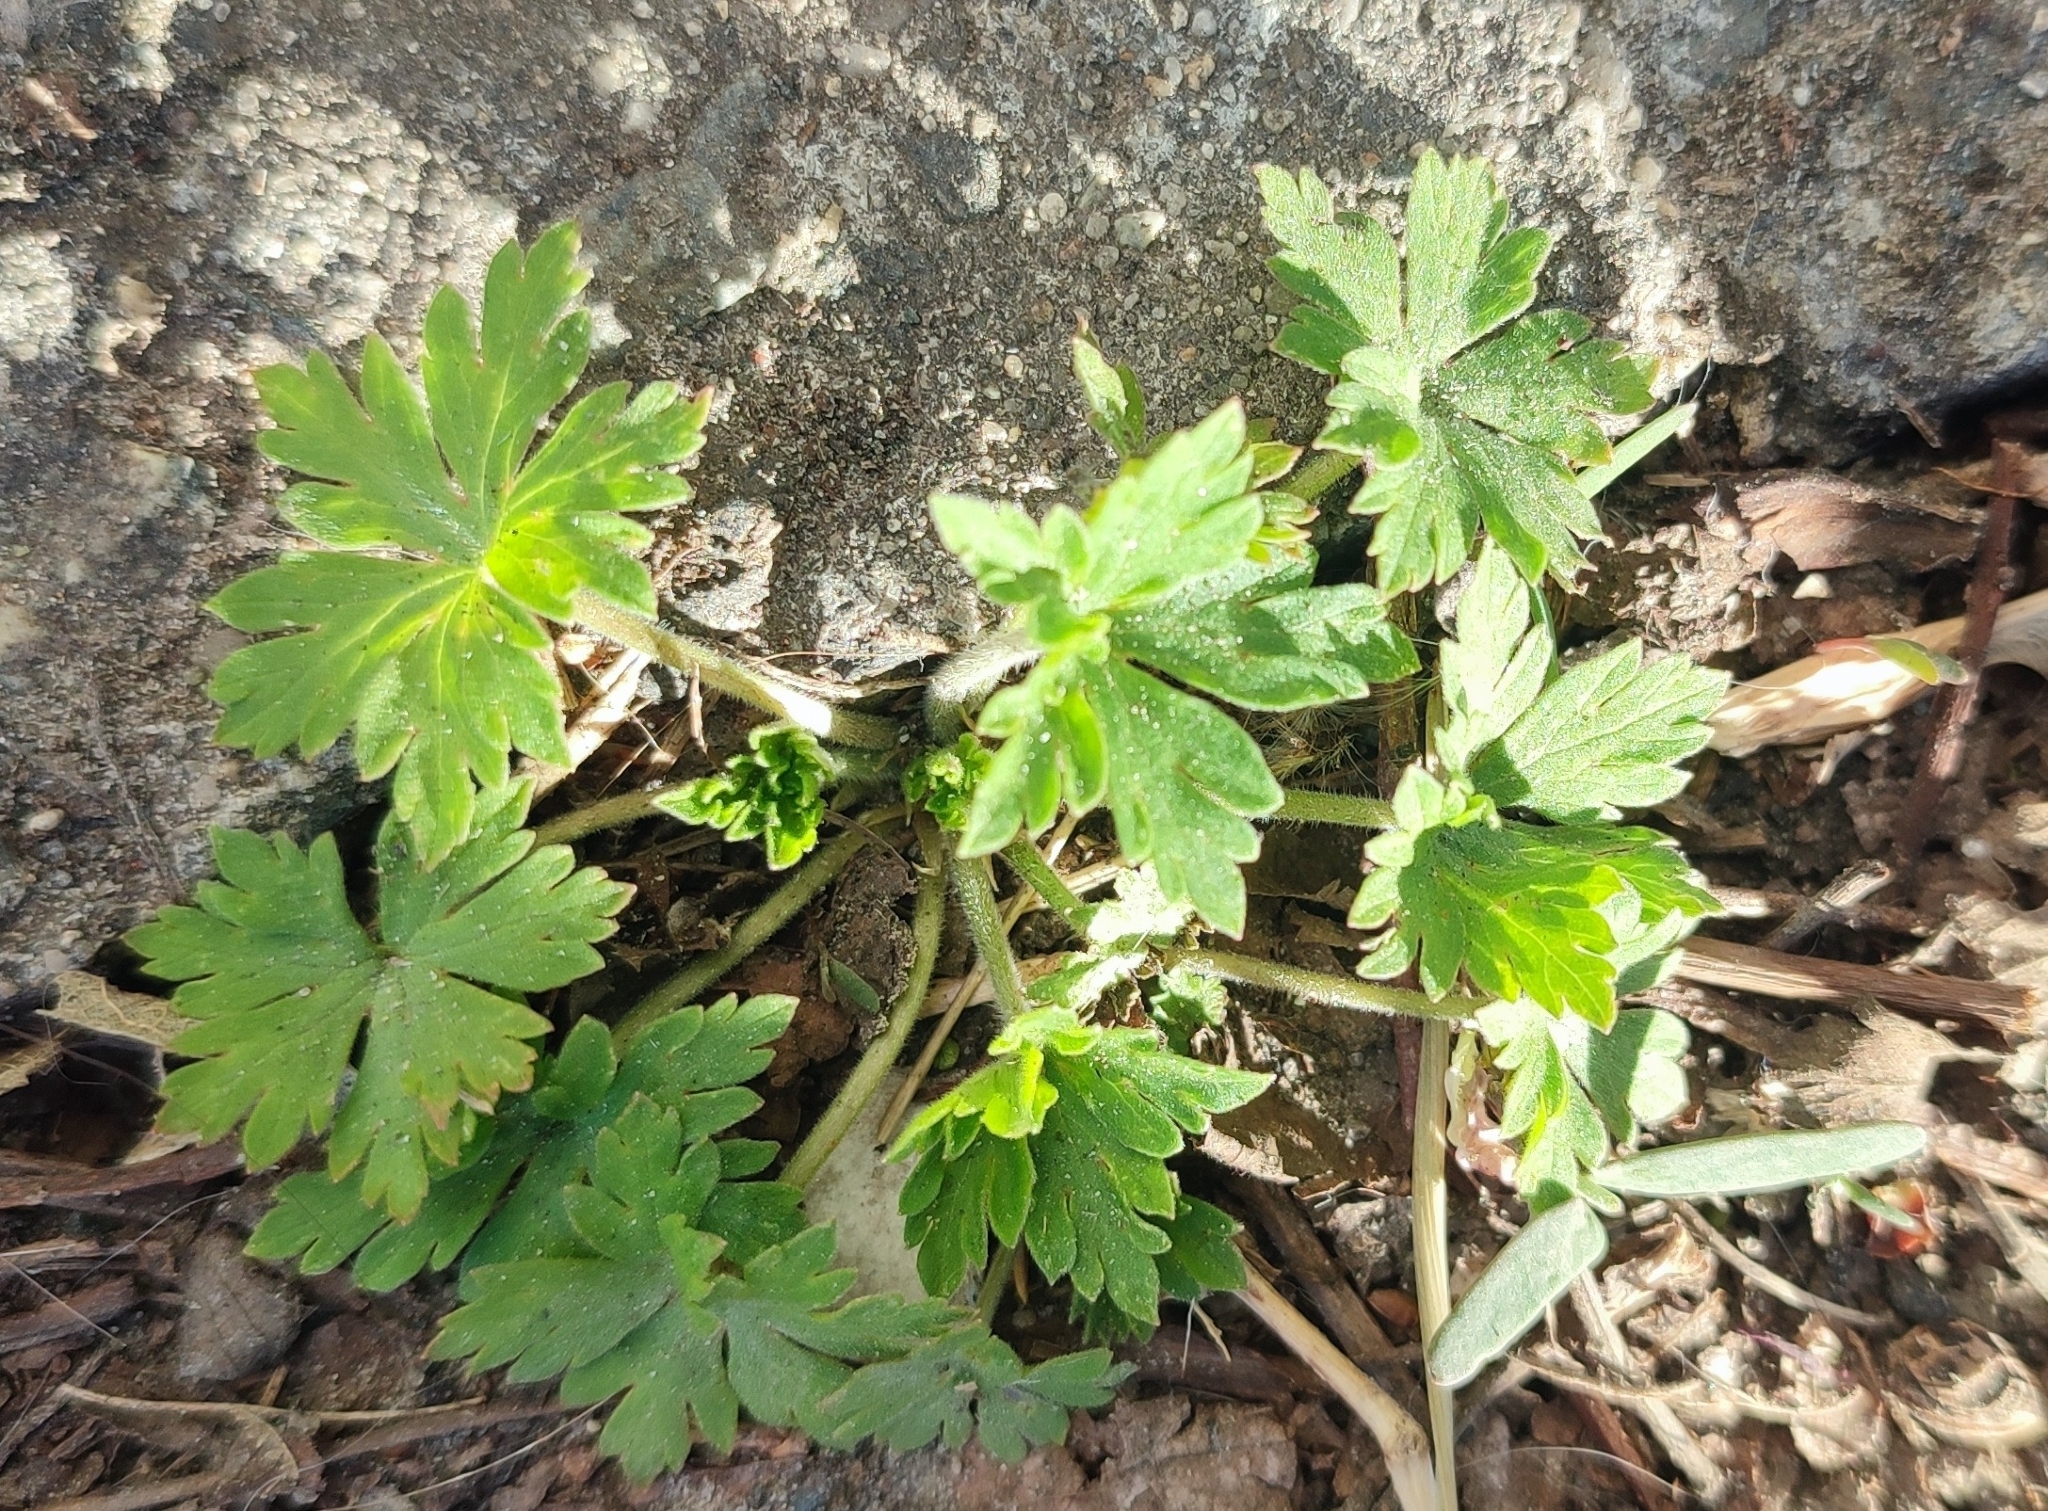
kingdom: Plantae
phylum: Tracheophyta
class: Magnoliopsida
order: Geraniales
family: Geraniaceae
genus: Geranium
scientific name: Geranium sibiricum
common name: Siberian crane's-bill
